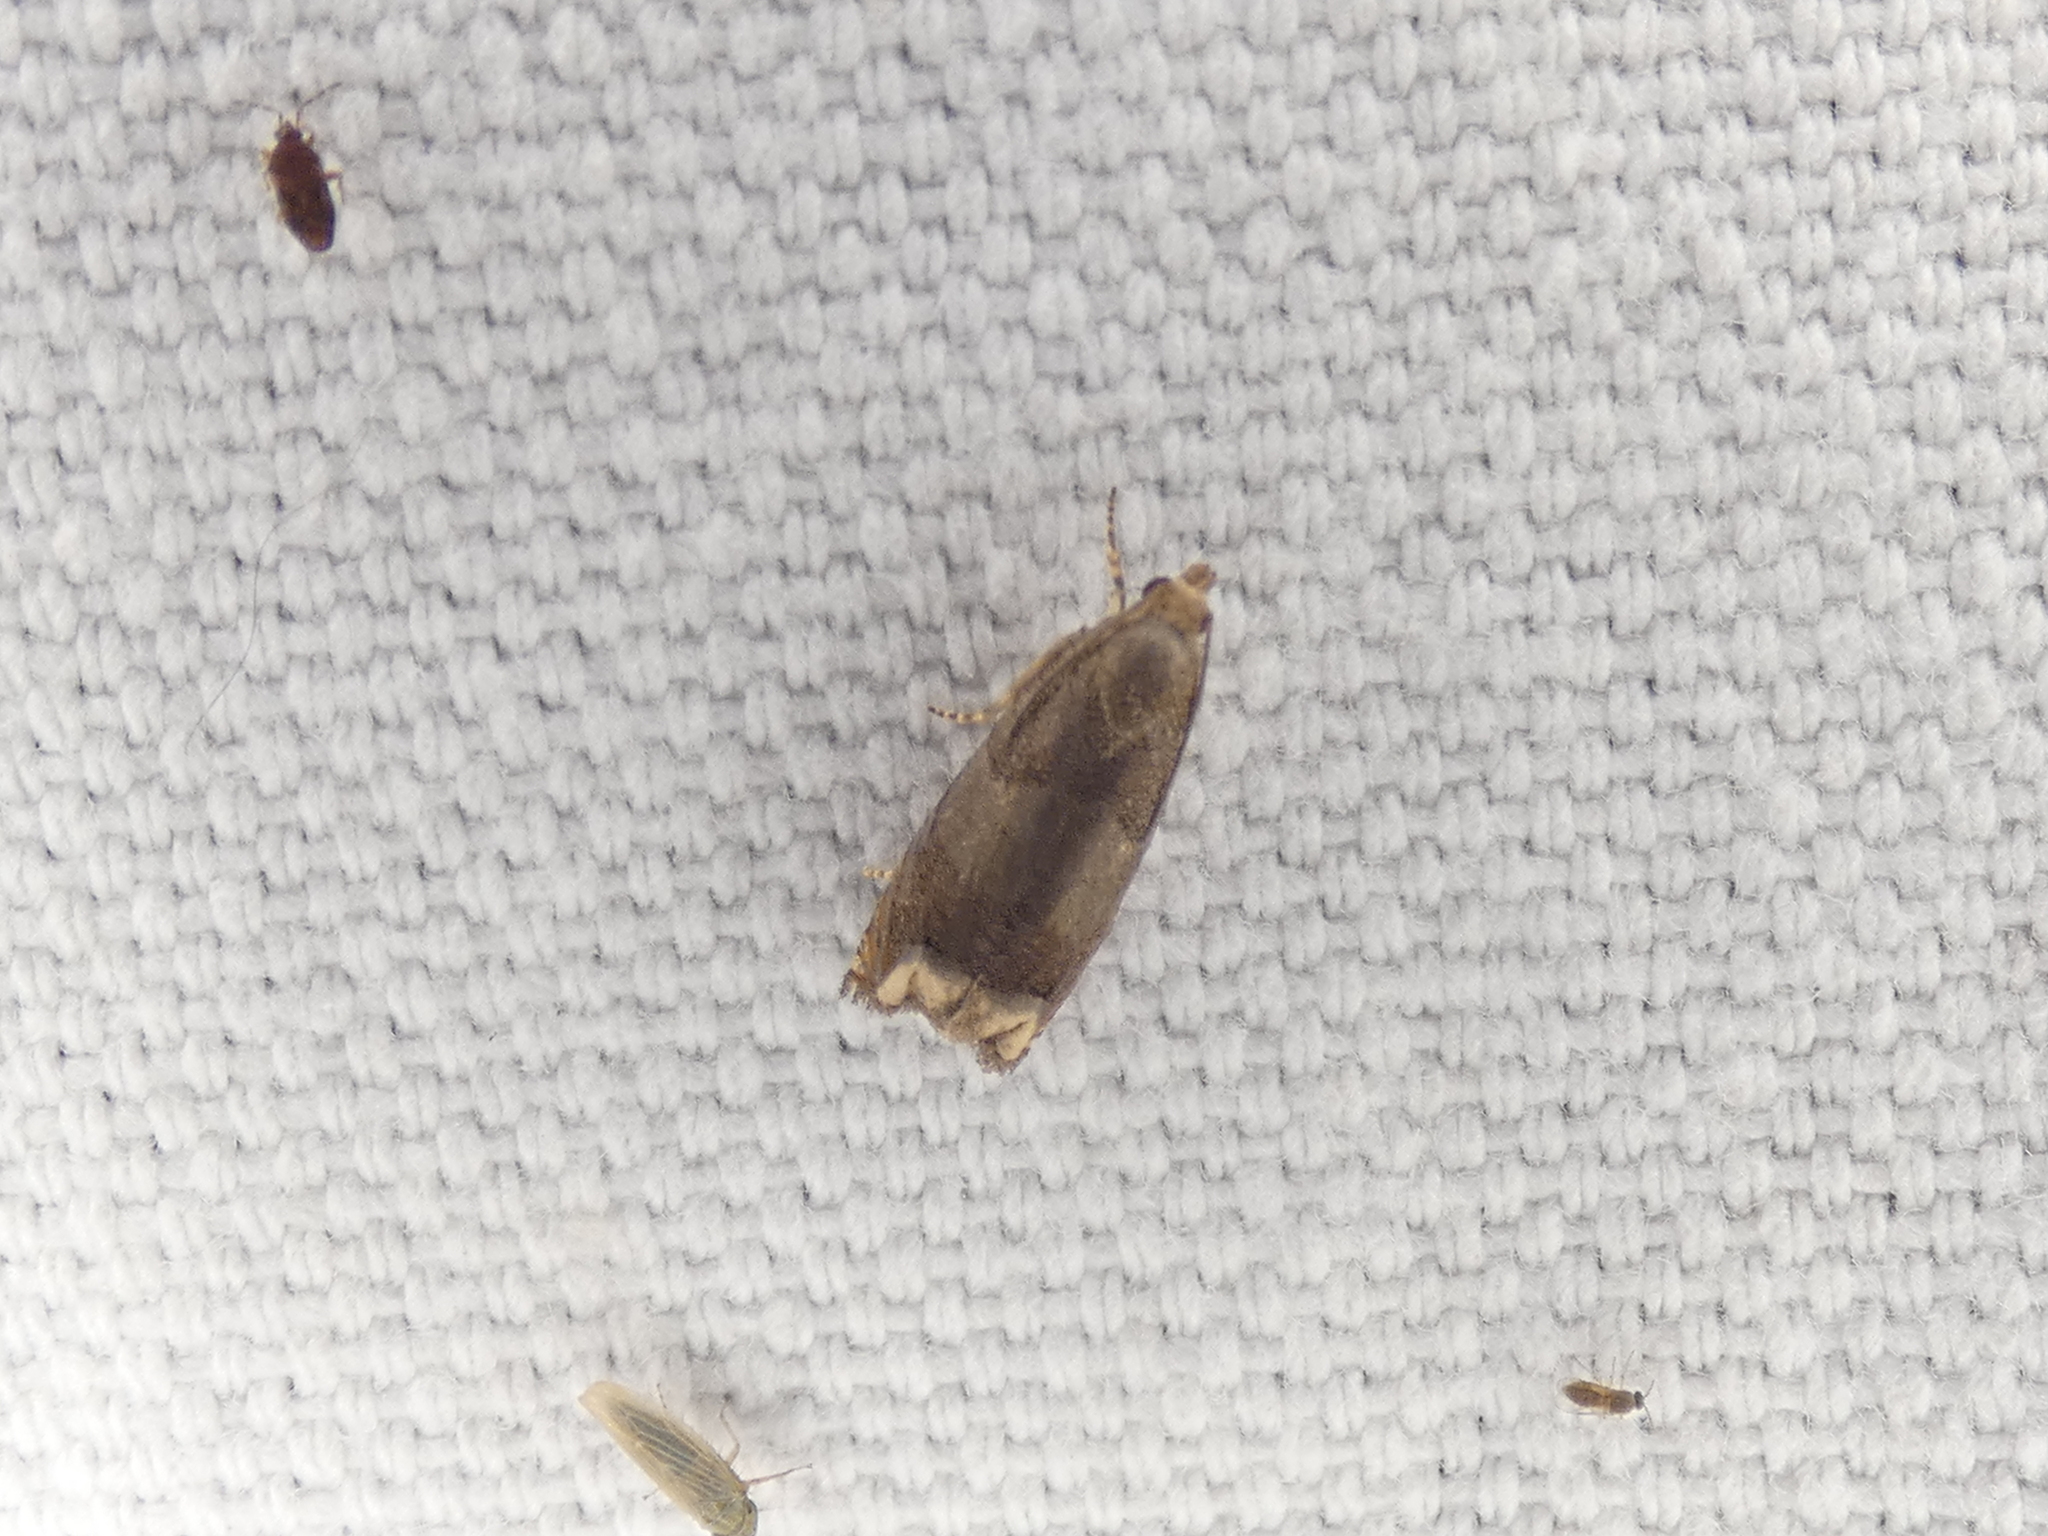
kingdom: Animalia
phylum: Arthropoda
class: Insecta
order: Lepidoptera
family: Tortricidae
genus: Epiblema
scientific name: Epiblema strenuana
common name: Ragweed borer moth
